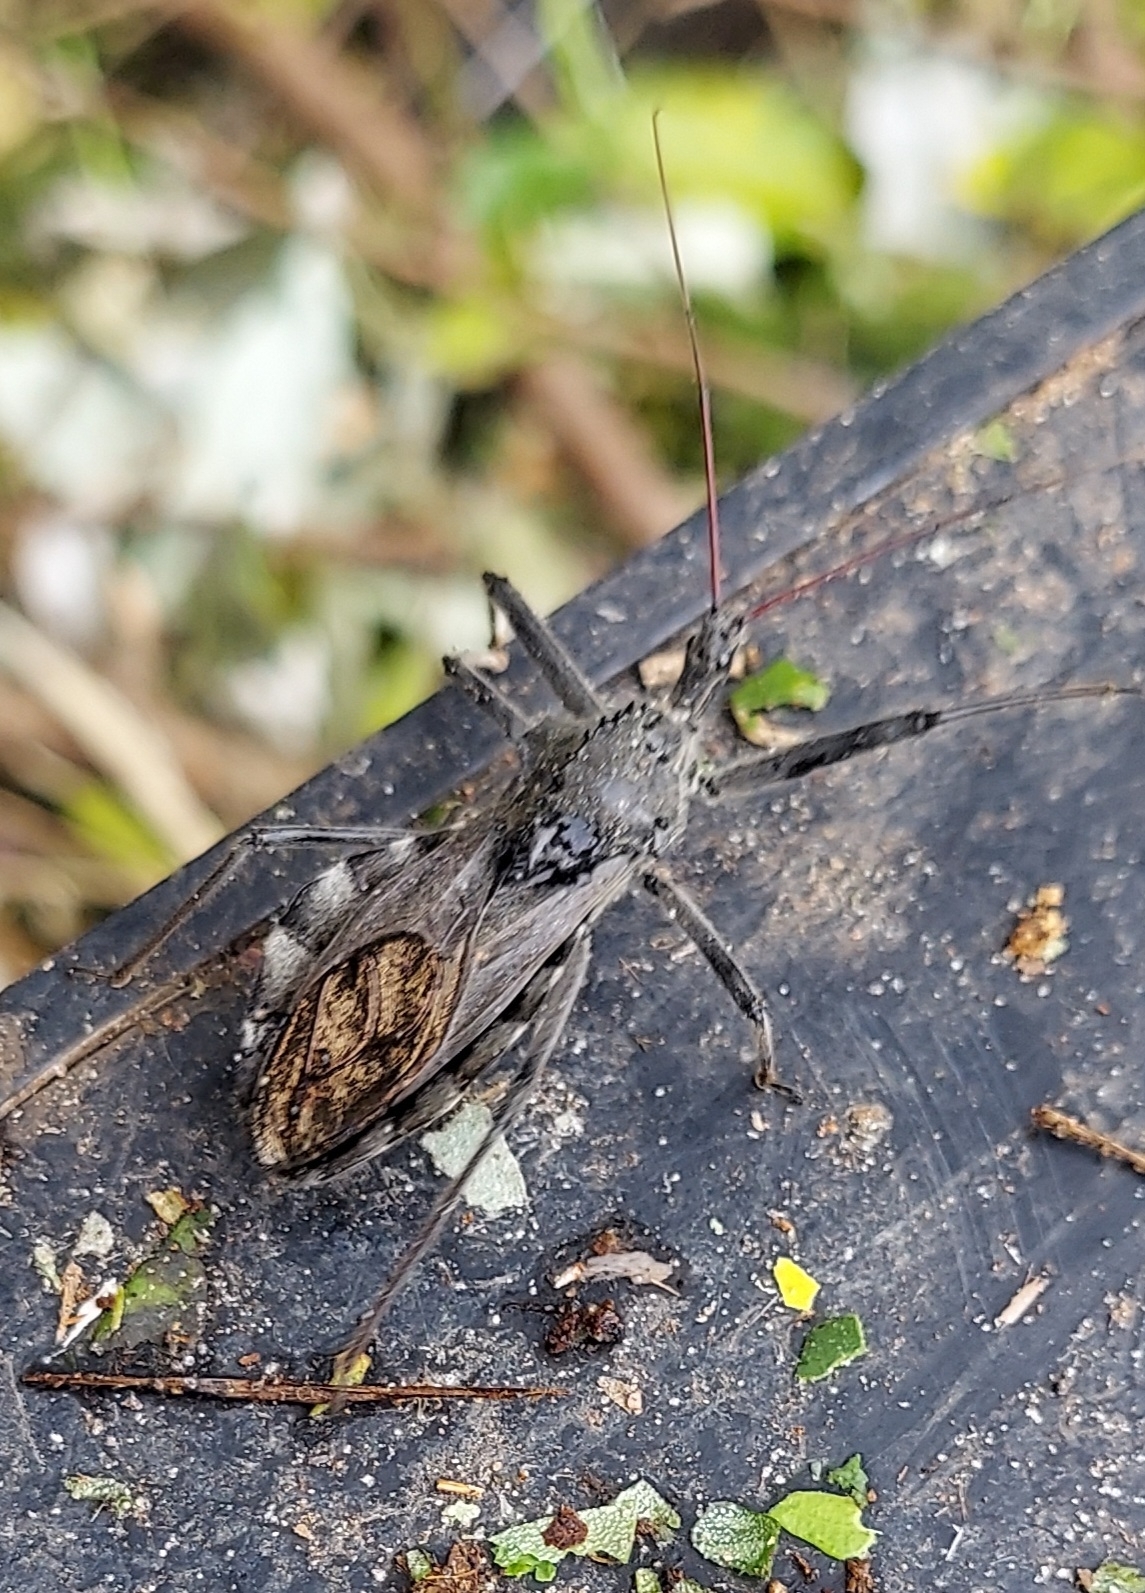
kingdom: Animalia
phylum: Arthropoda
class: Insecta
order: Hemiptera
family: Reduviidae
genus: Arilus
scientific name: Arilus cristatus
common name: North american wheel bug
